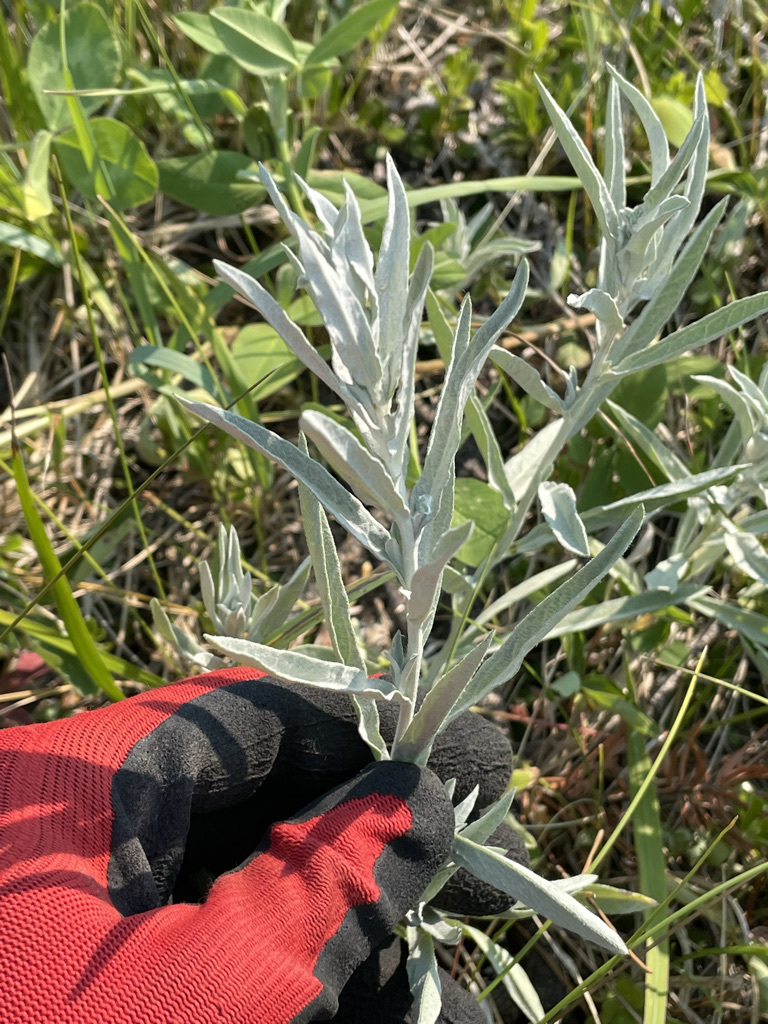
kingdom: Plantae
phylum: Tracheophyta
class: Magnoliopsida
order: Asterales
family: Asteraceae
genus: Artemisia
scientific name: Artemisia ludoviciana
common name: Western mugwort
